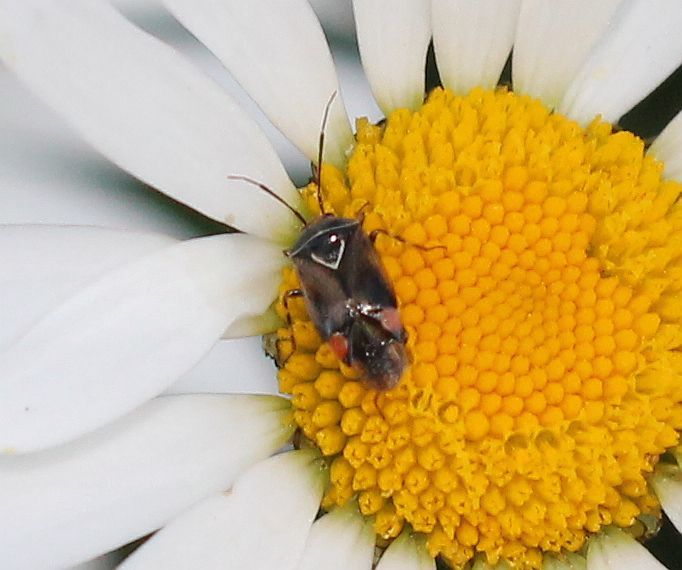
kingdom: Animalia
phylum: Arthropoda
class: Insecta
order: Hemiptera
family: Miridae
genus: Deraeocoris
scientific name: Deraeocoris flavilinea
